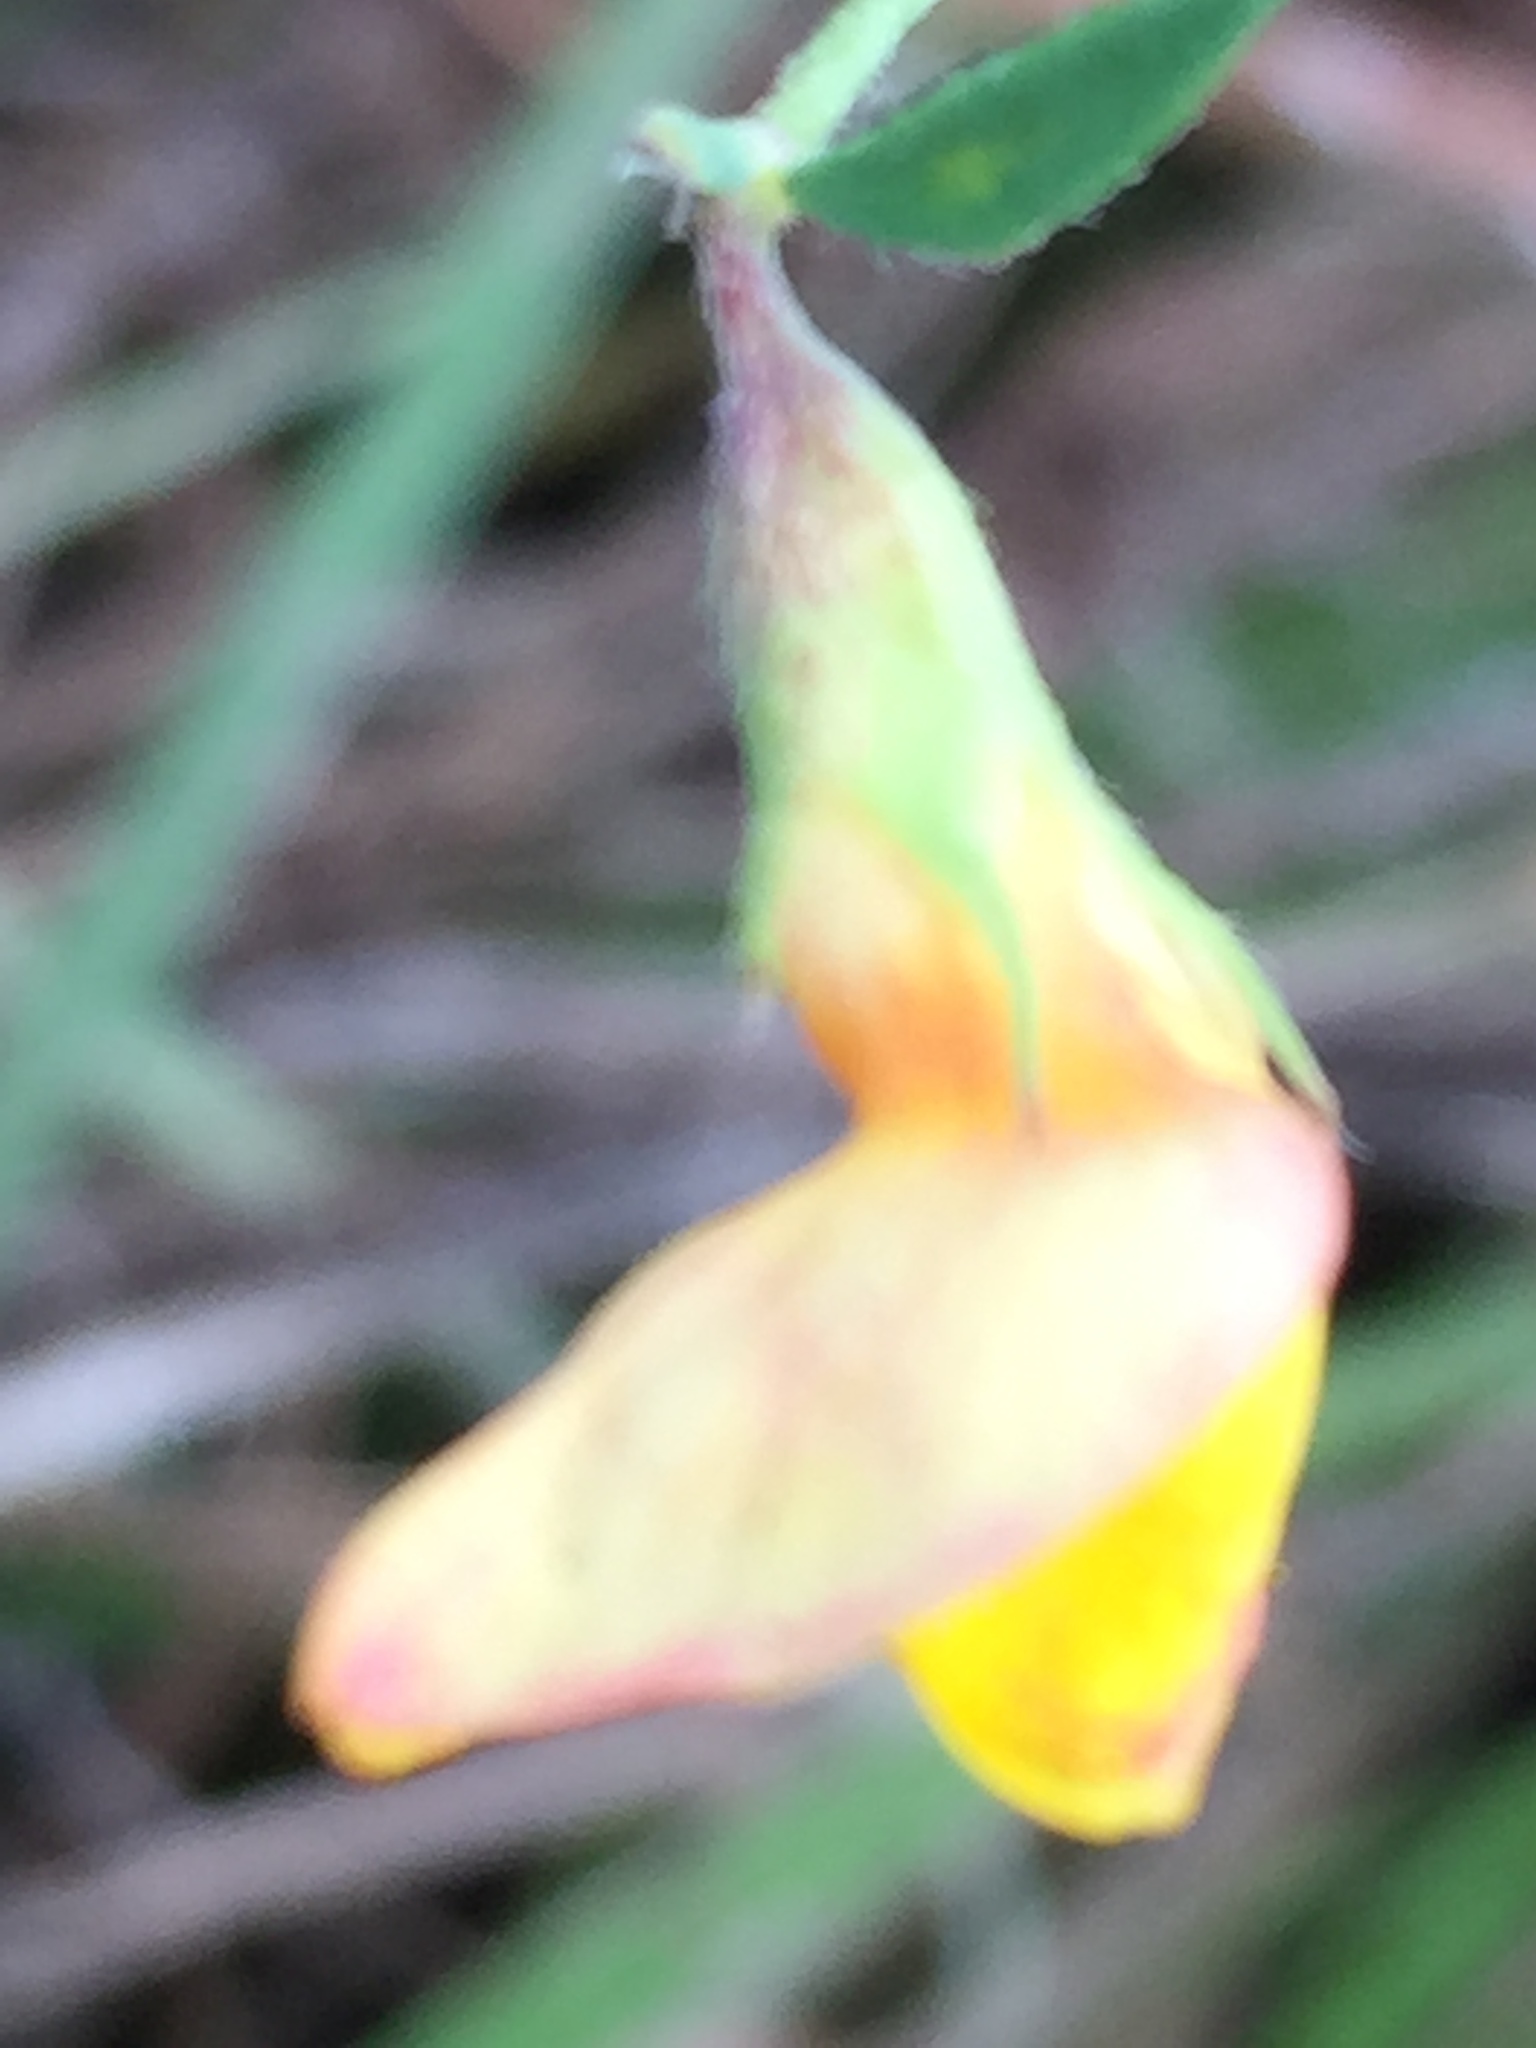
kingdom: Plantae
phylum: Tracheophyta
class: Magnoliopsida
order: Fabales
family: Fabaceae
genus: Lotus
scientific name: Lotus corniculatus
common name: Common bird's-foot-trefoil
